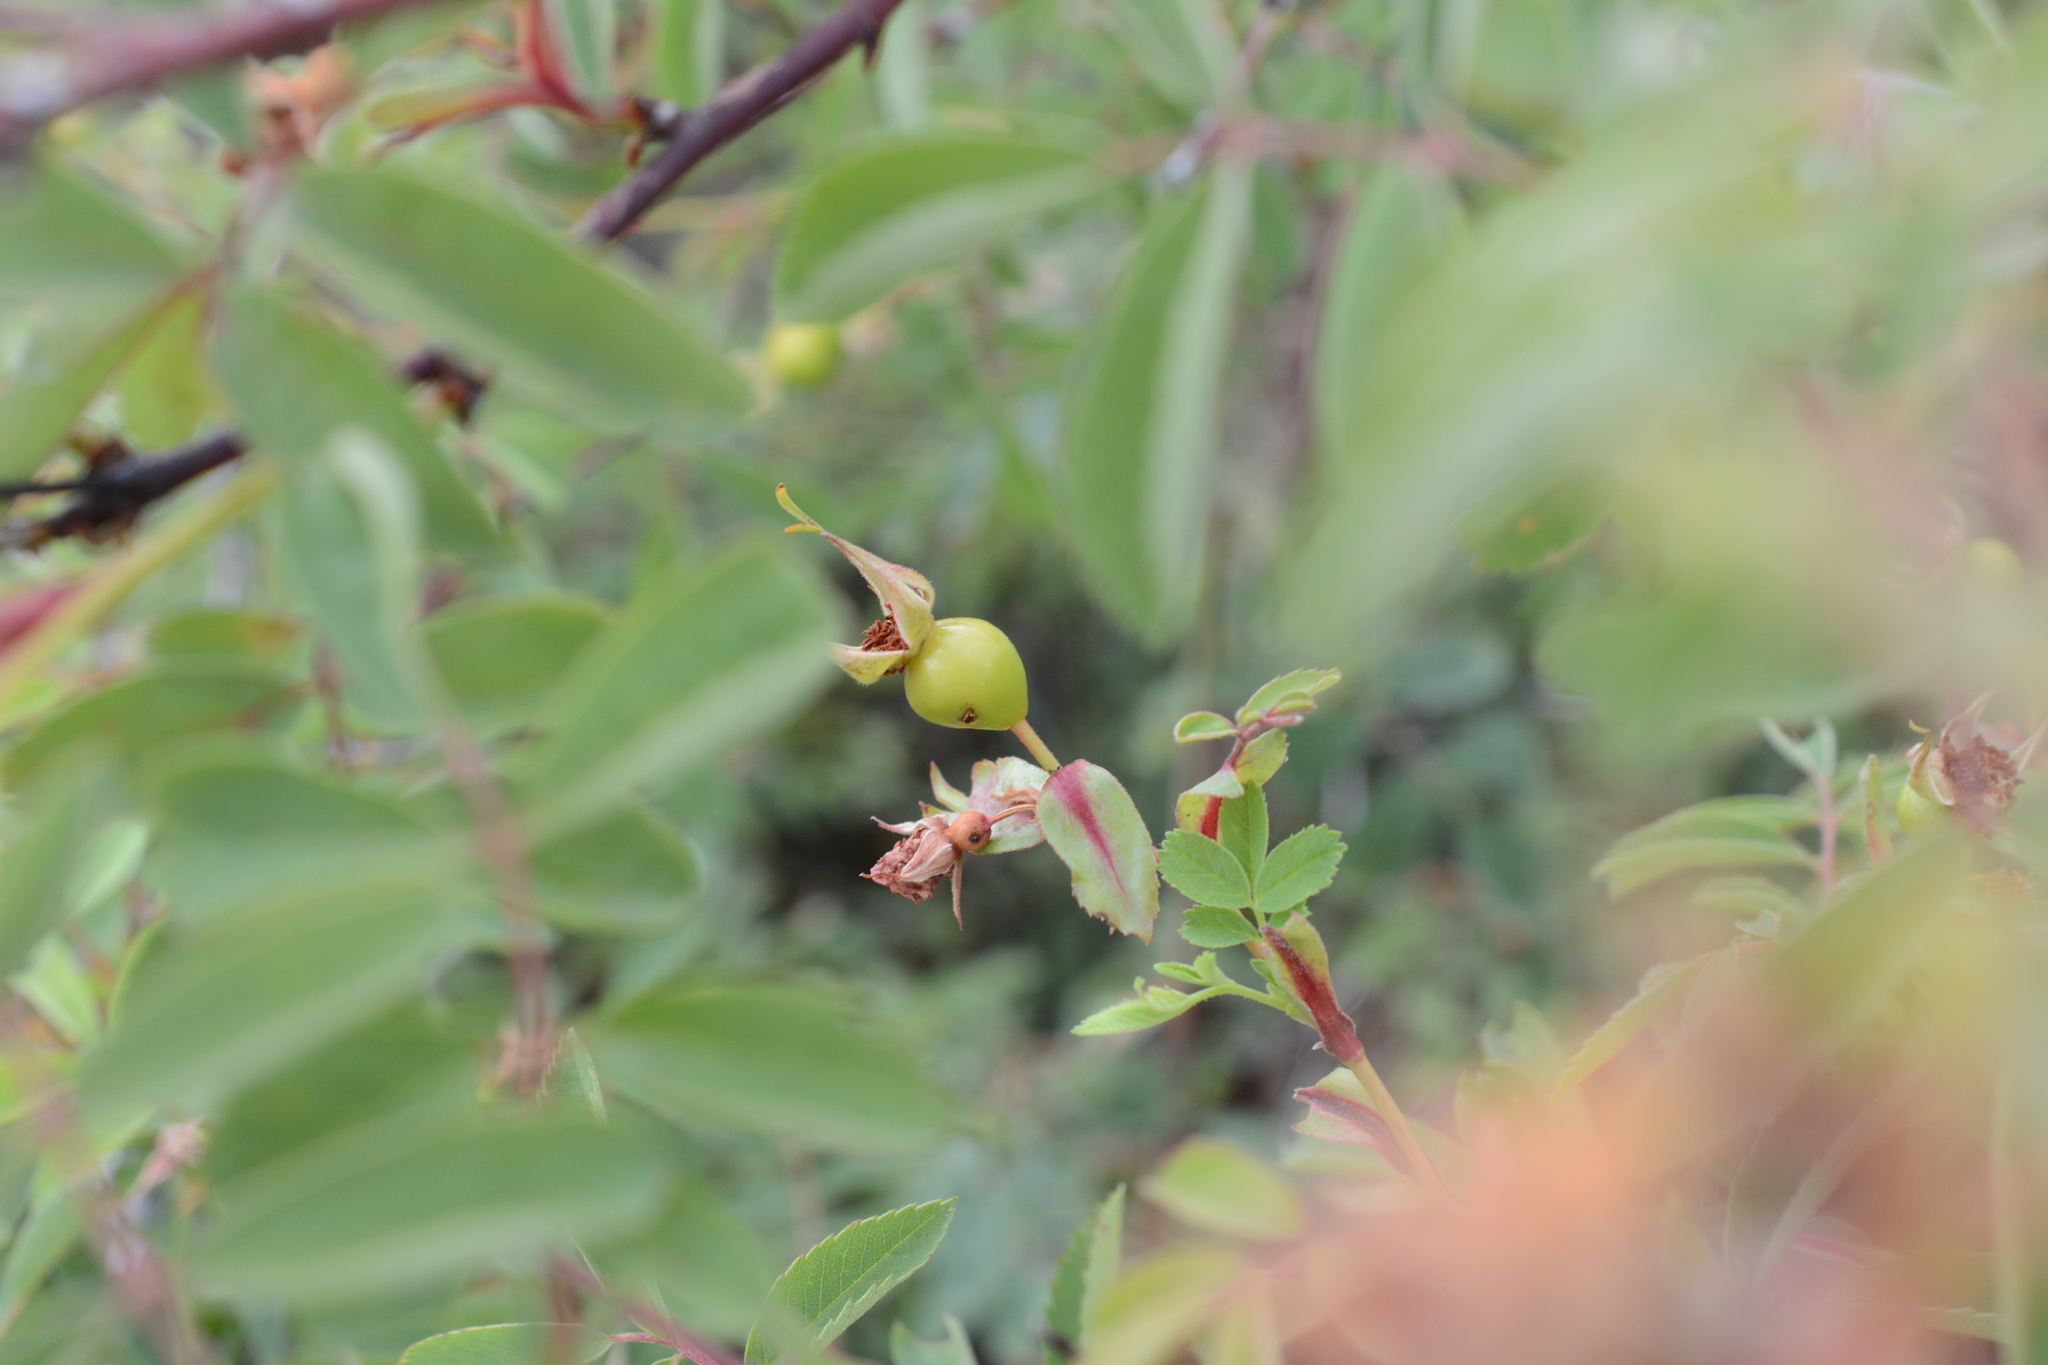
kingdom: Plantae
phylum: Tracheophyta
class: Magnoliopsida
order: Rosales
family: Rosaceae
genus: Rosa
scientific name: Rosa canina
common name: Dog rose
